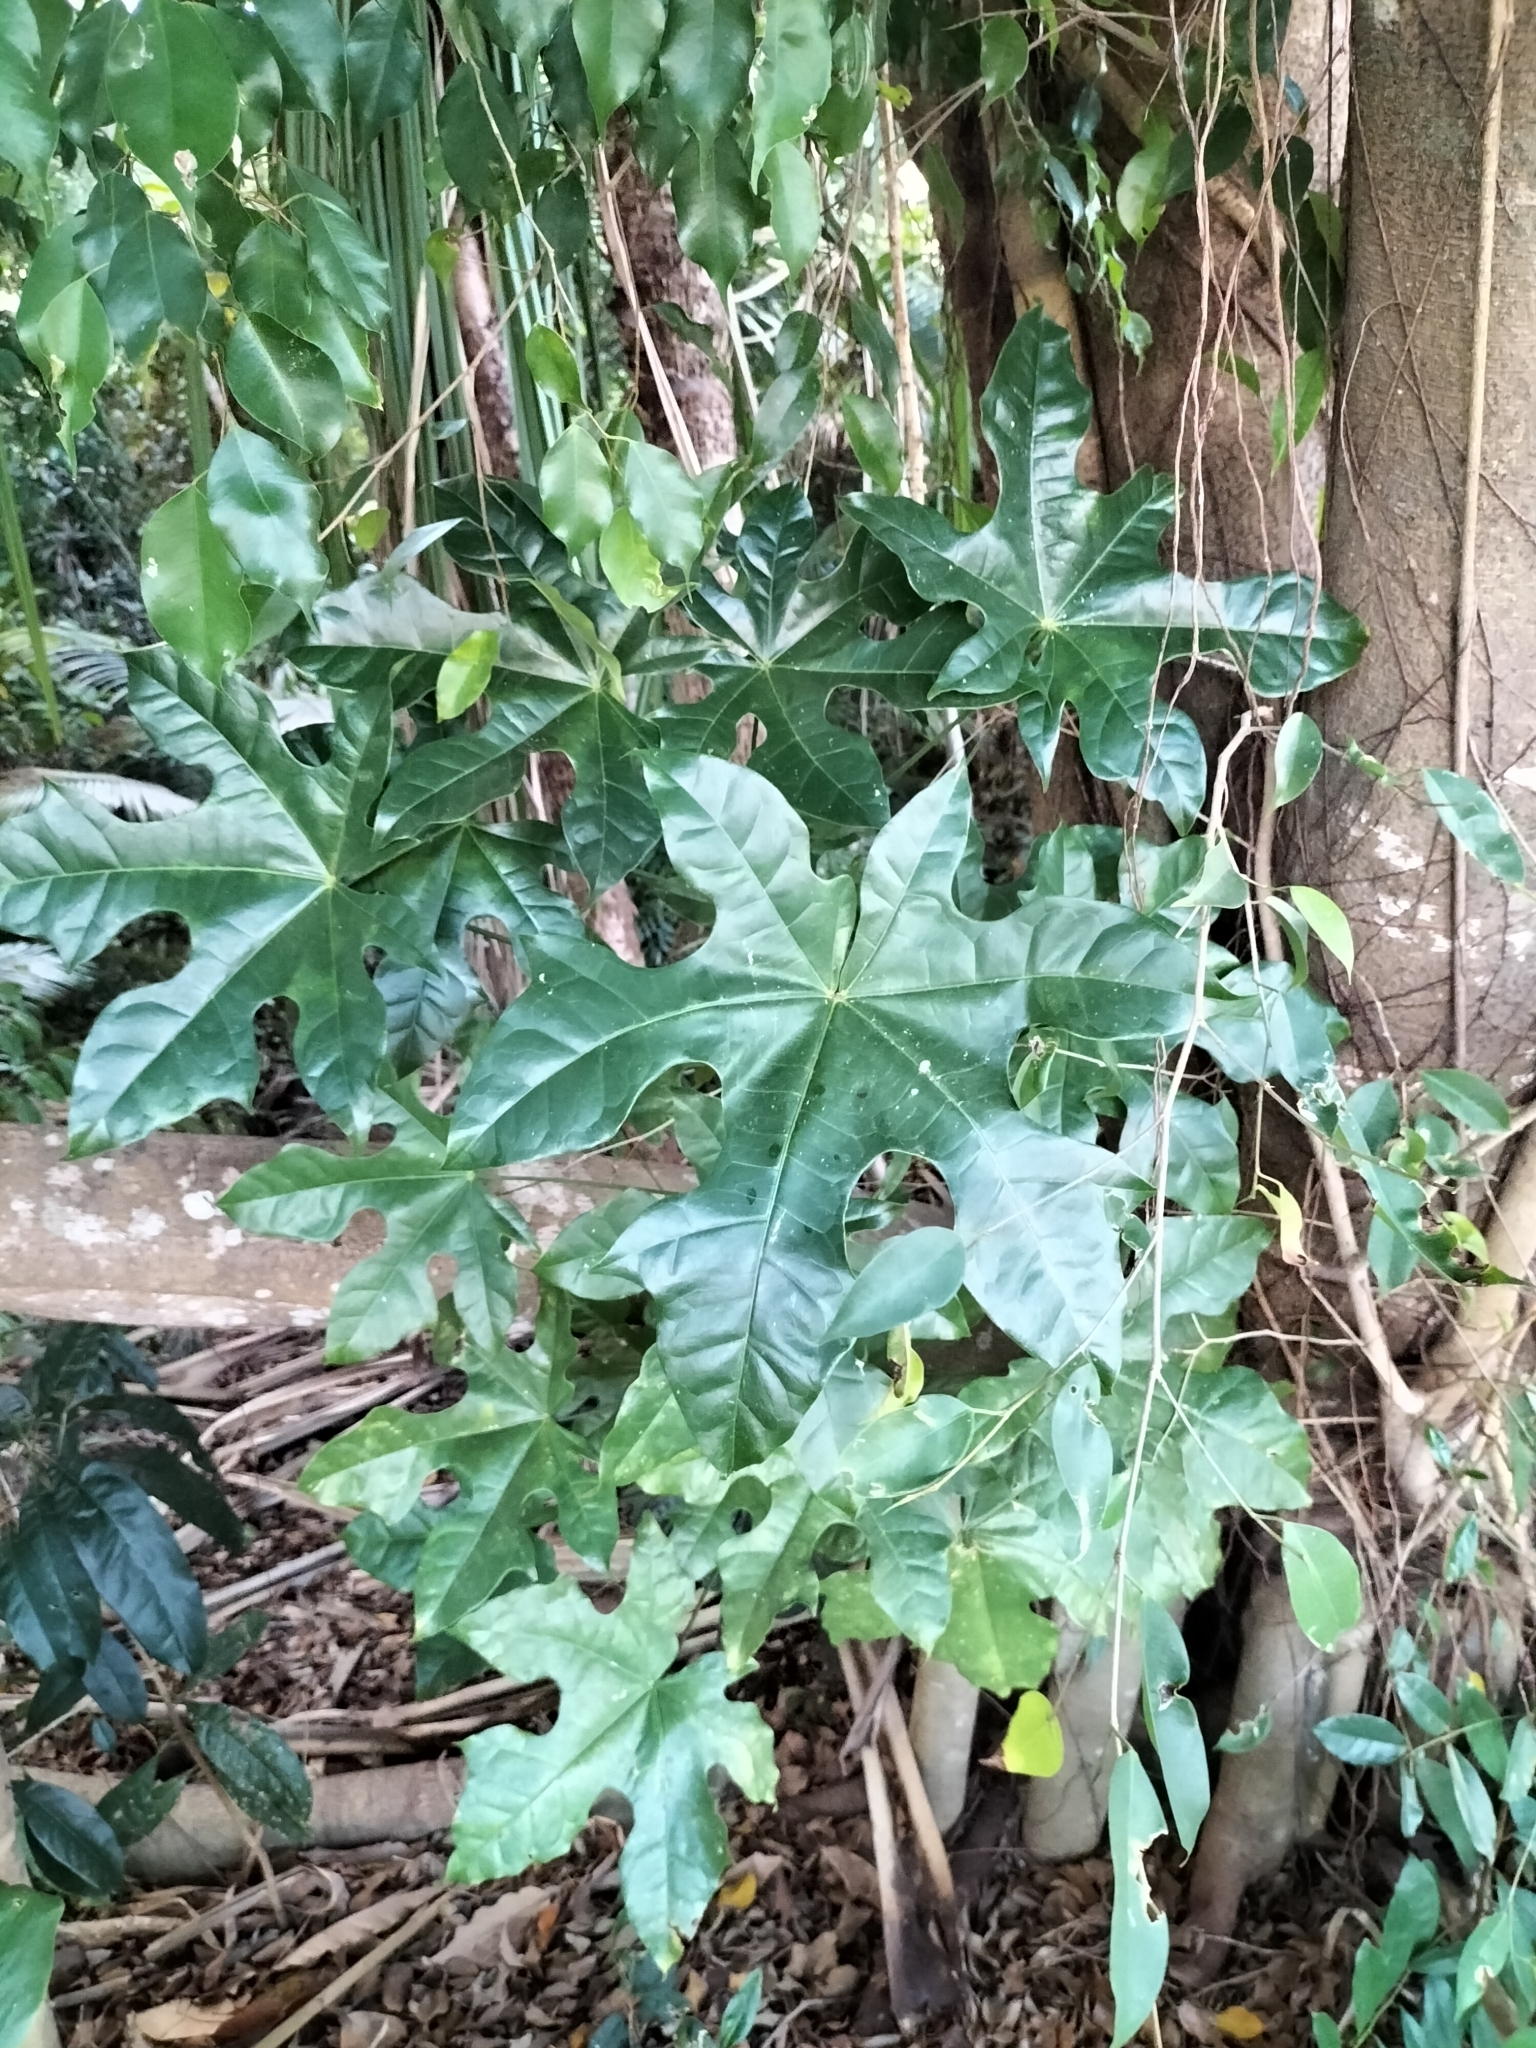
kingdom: Plantae
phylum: Tracheophyta
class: Magnoliopsida
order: Malvales
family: Malvaceae
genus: Brachychiton
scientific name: Brachychiton acerifolius
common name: Illawarra flame tree
